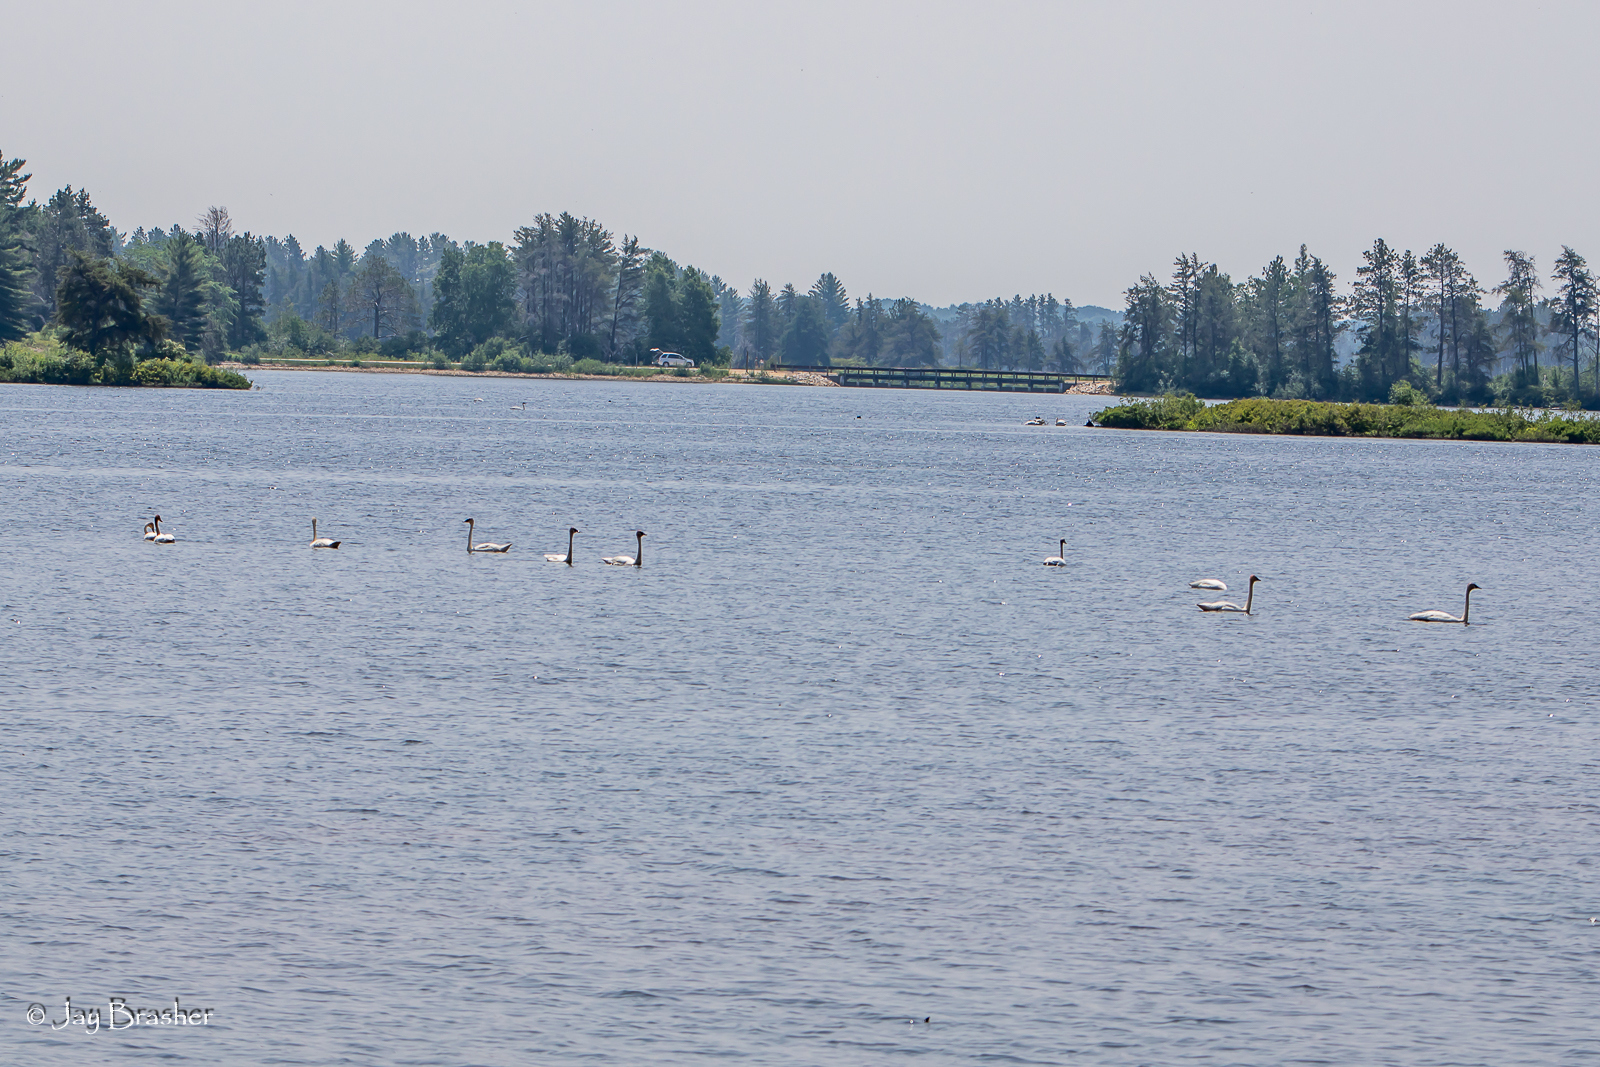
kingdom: Animalia
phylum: Chordata
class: Aves
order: Anseriformes
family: Anatidae
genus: Cygnus
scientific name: Cygnus buccinator
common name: Trumpeter swan
